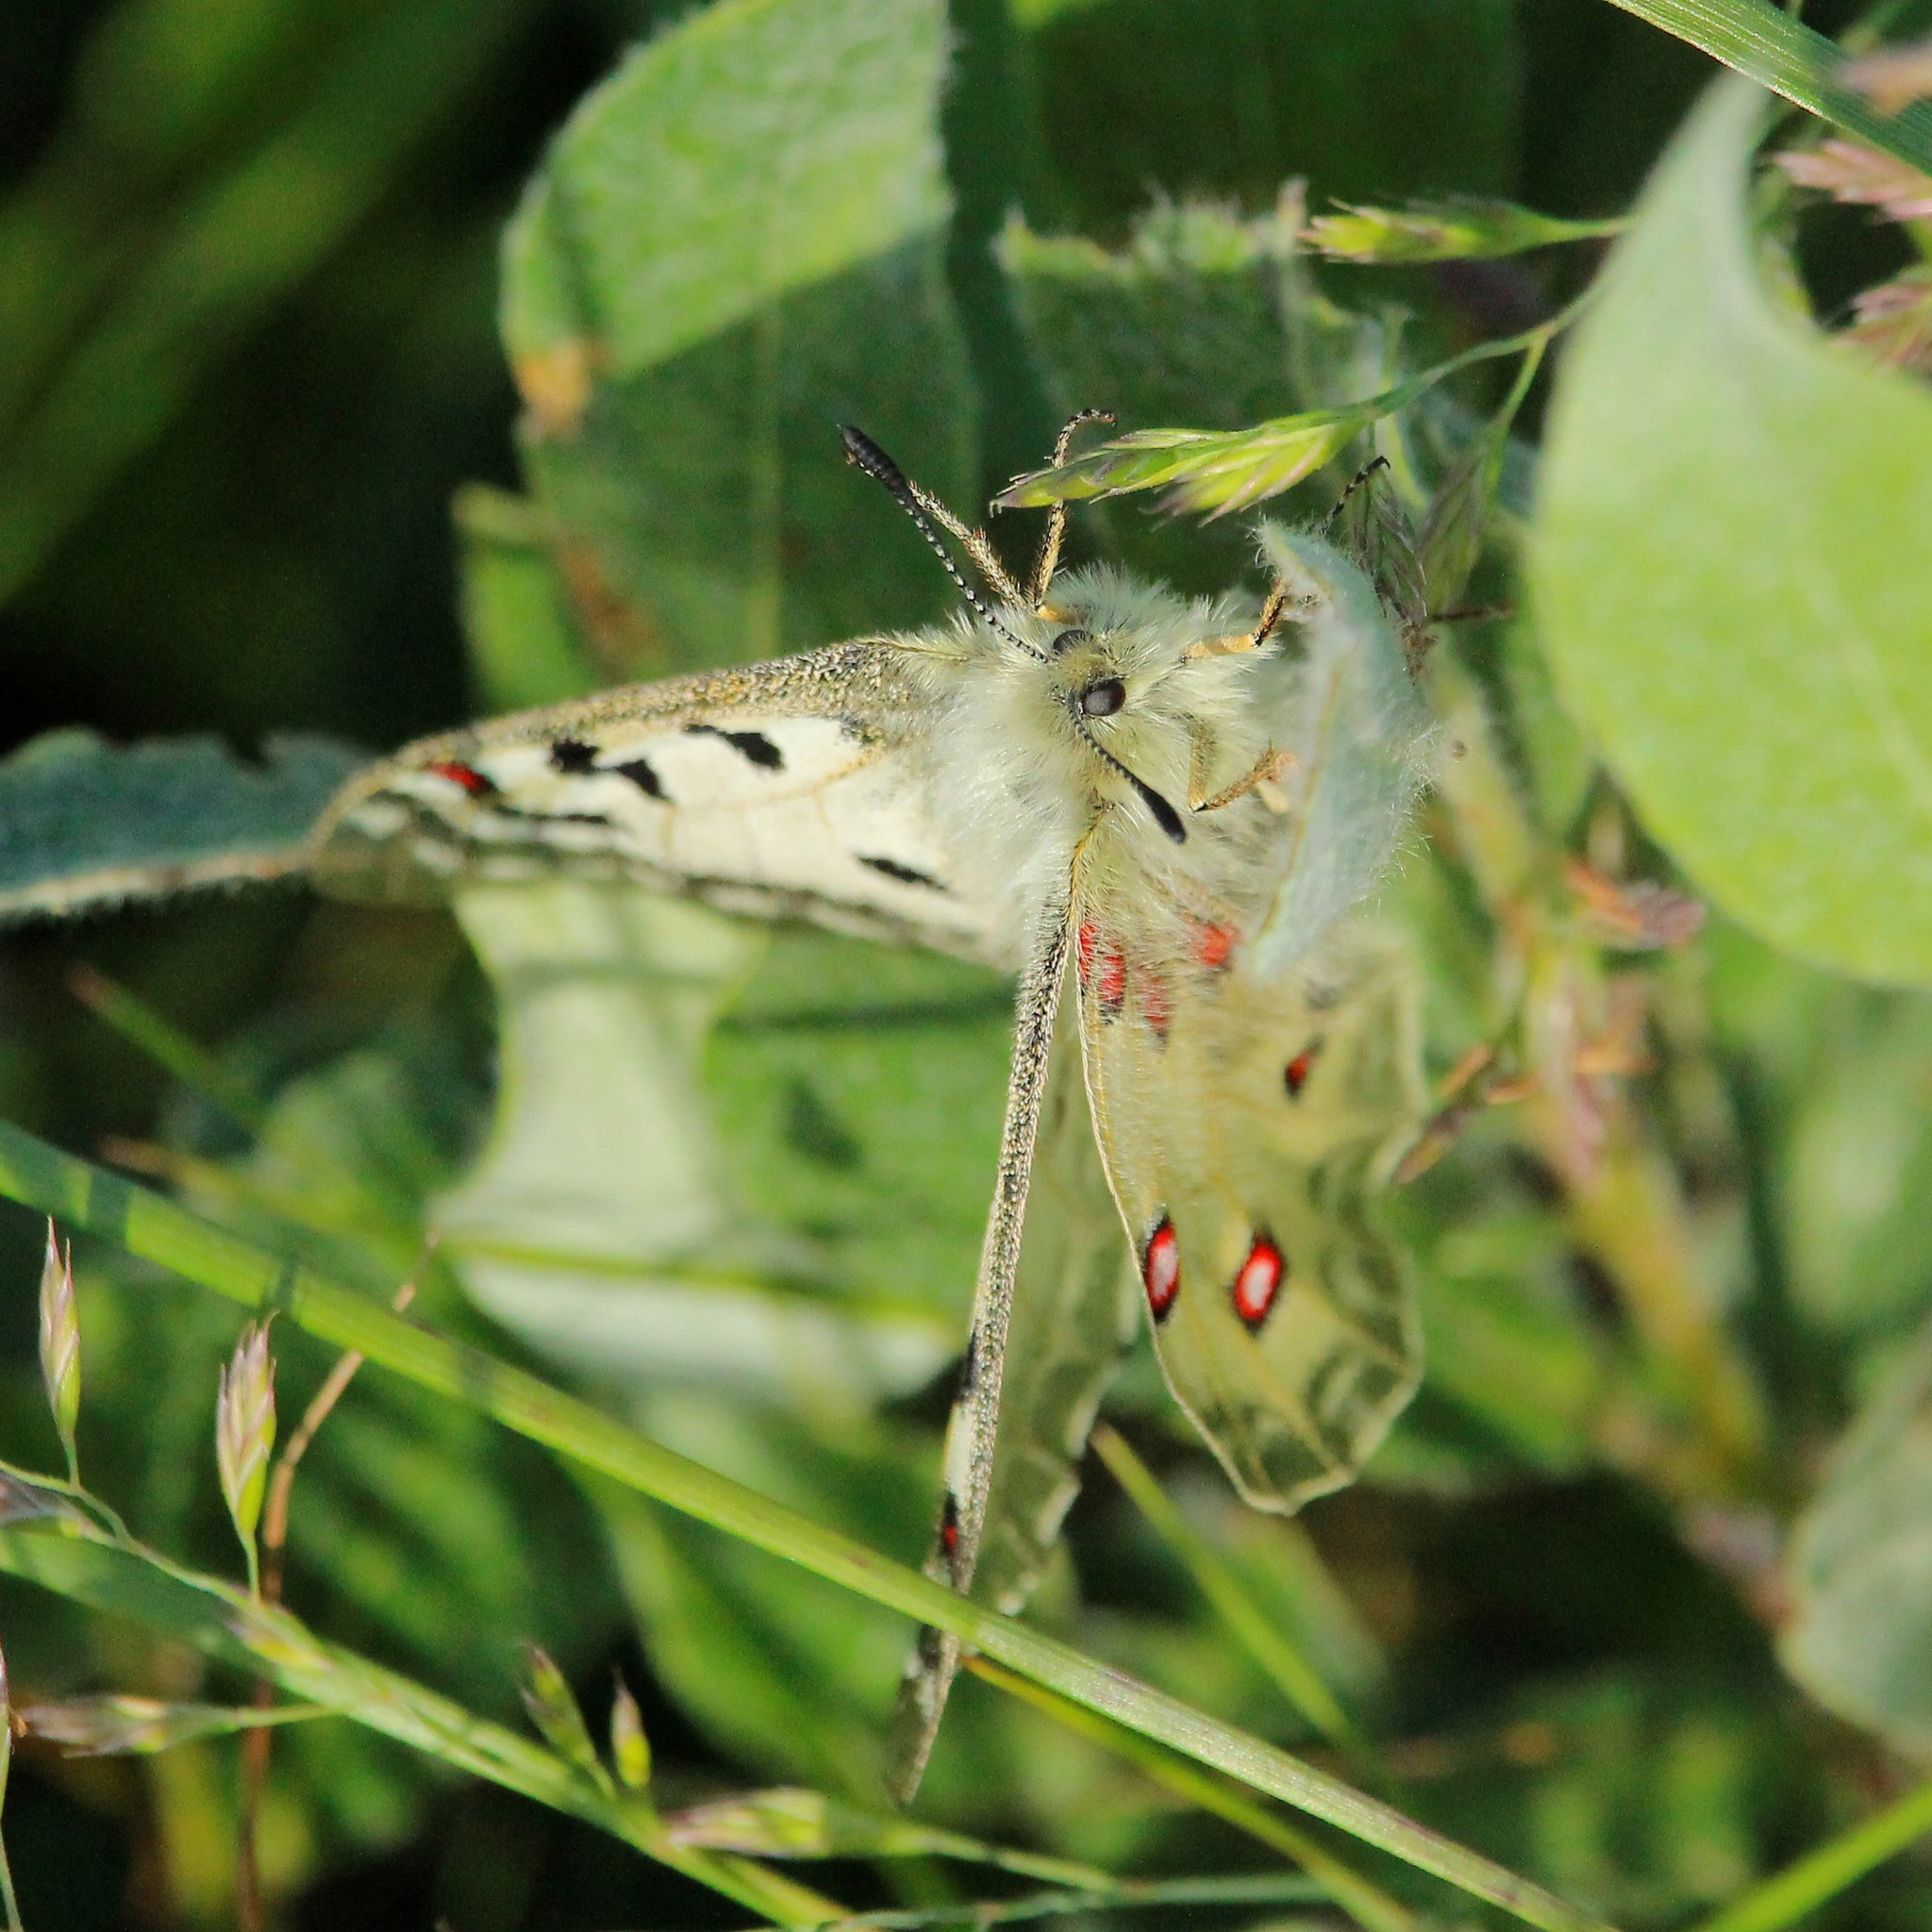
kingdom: Animalia
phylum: Arthropoda
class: Insecta
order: Lepidoptera
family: Papilionidae
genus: Parnassius
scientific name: Parnassius phoebus
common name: Small apollo
